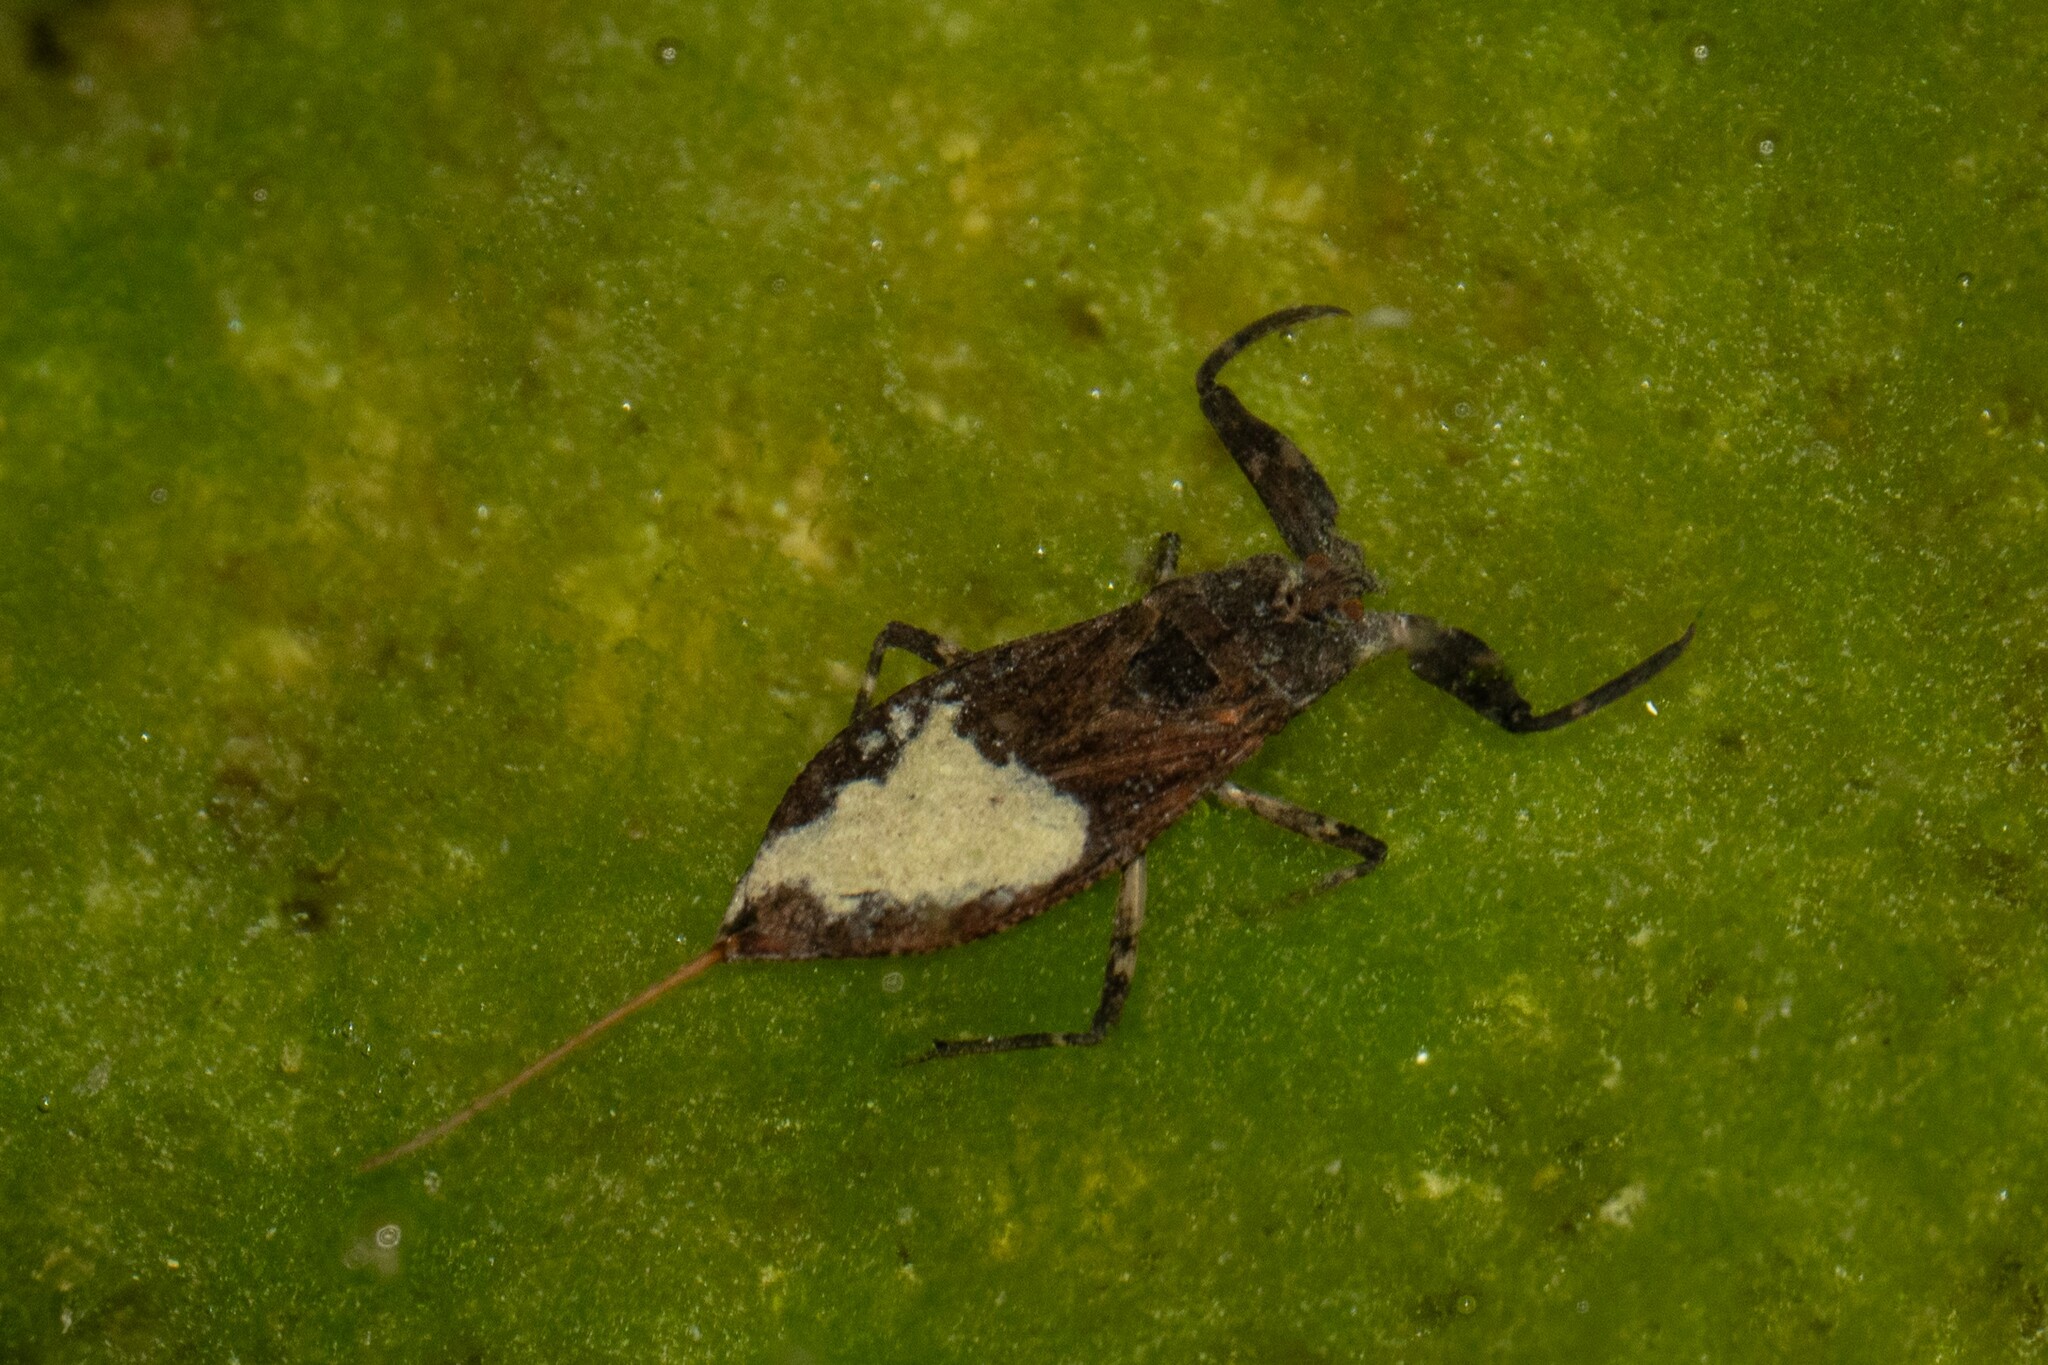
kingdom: Animalia
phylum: Arthropoda
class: Insecta
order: Hemiptera
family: Nepidae
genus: Nepa
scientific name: Nepa cinerea
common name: Water scorpion
